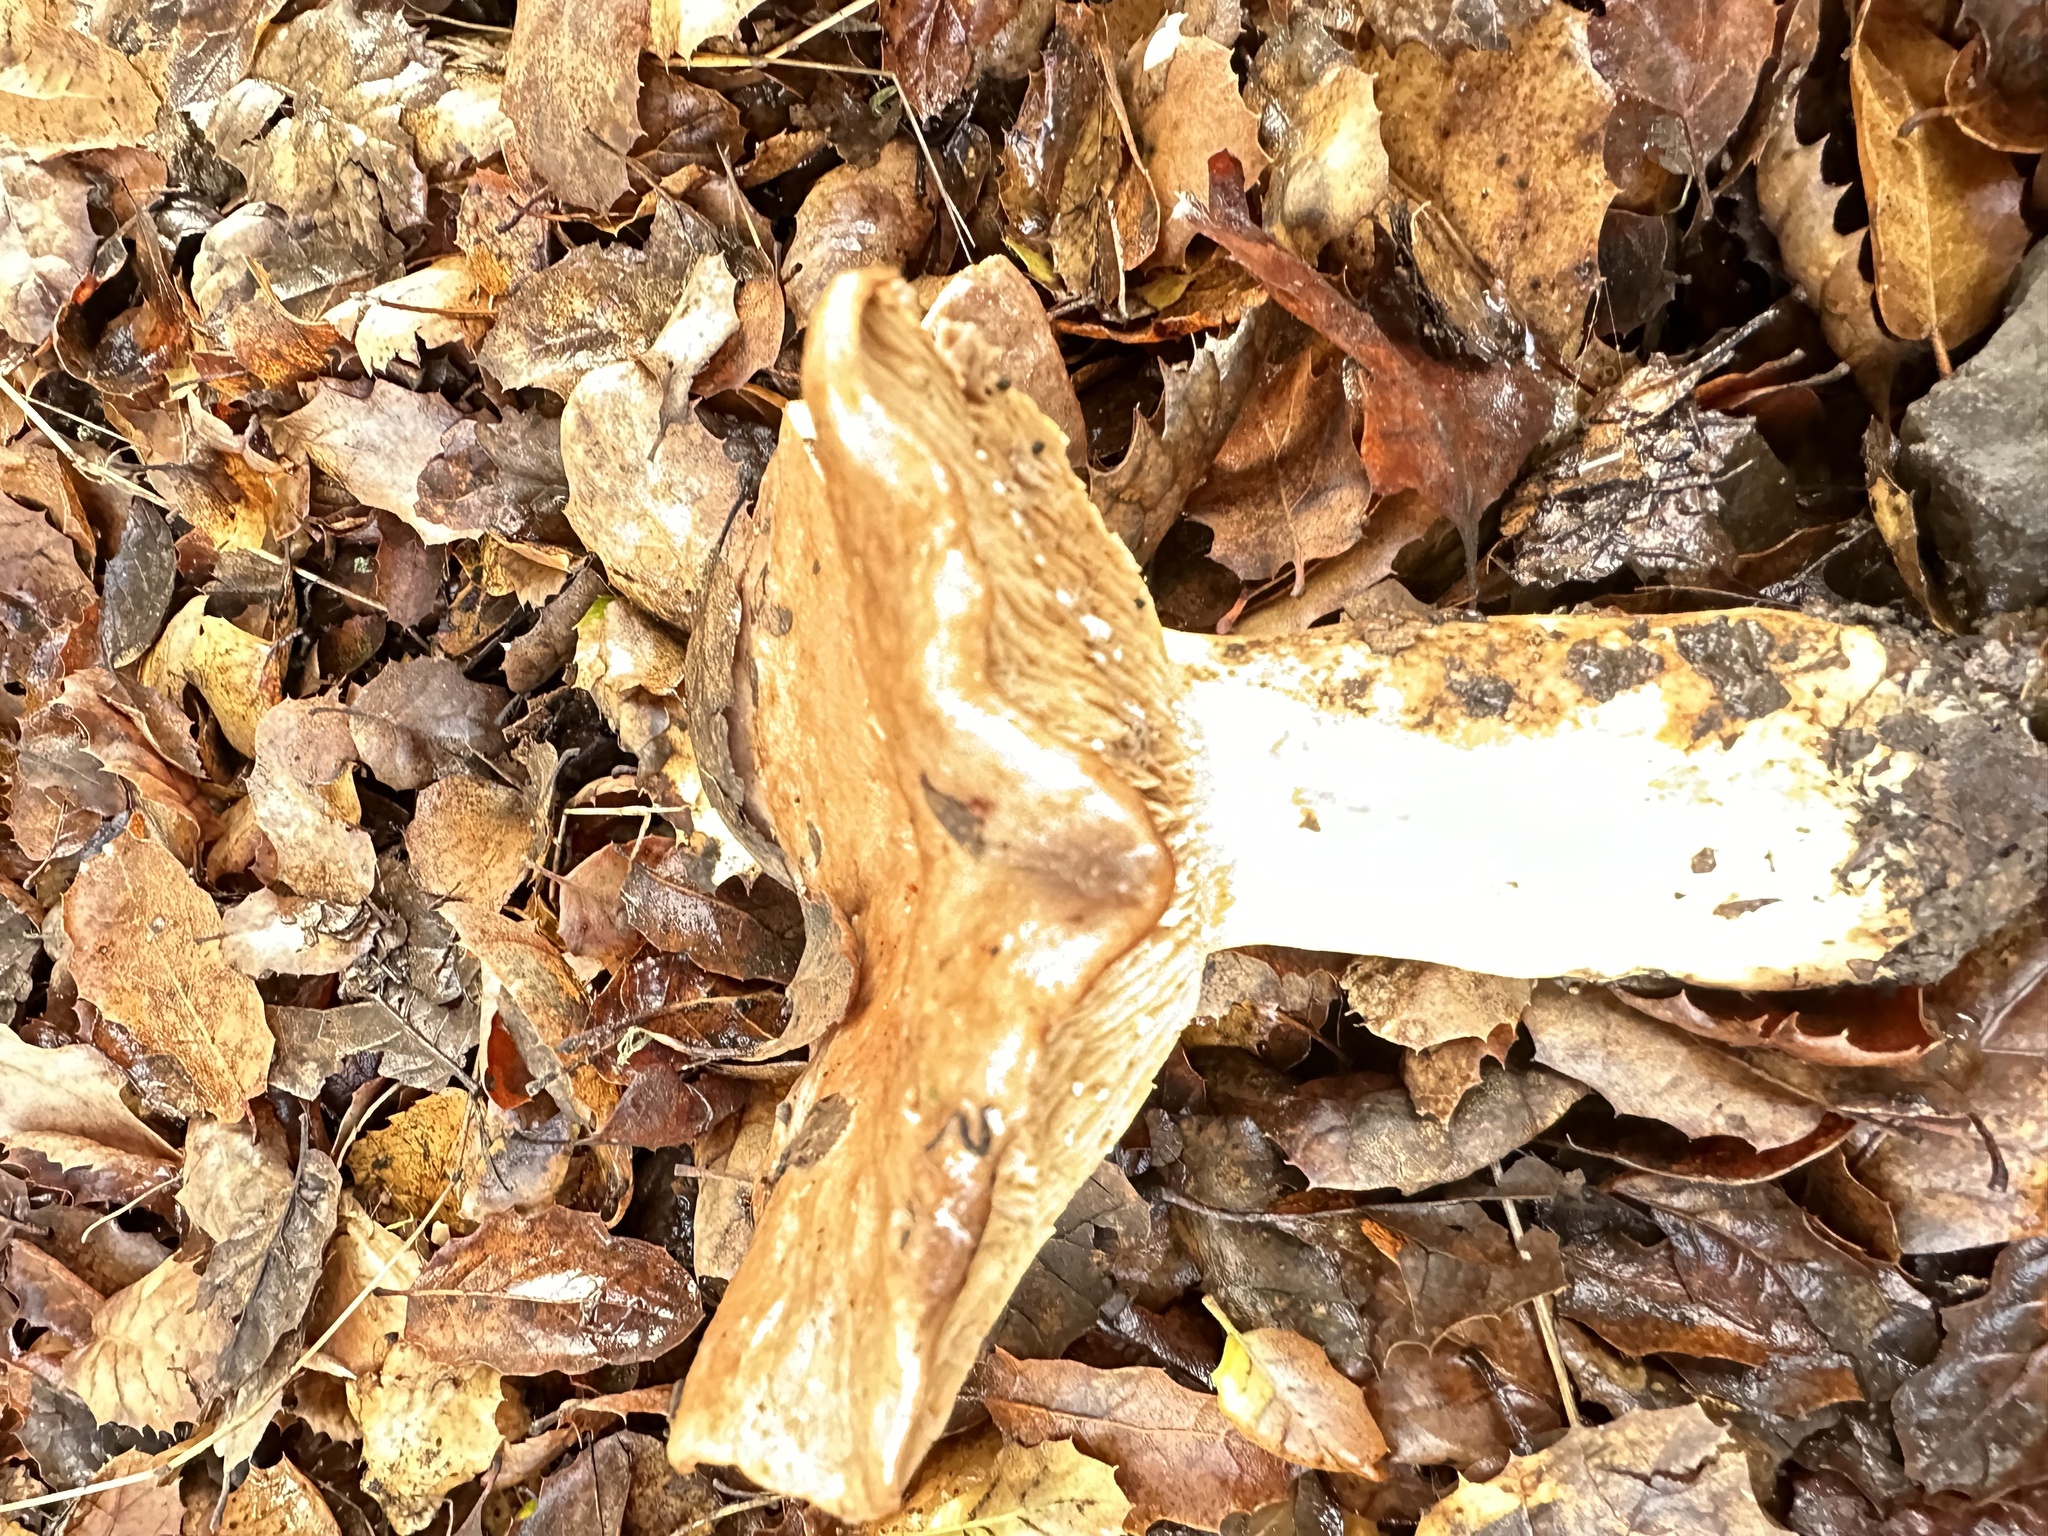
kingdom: Fungi
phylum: Basidiomycota
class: Agaricomycetes
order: Russulales
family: Russulaceae
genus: Lactarius
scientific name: Lactarius argillaceifolius
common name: Clay-gilled milkcap
